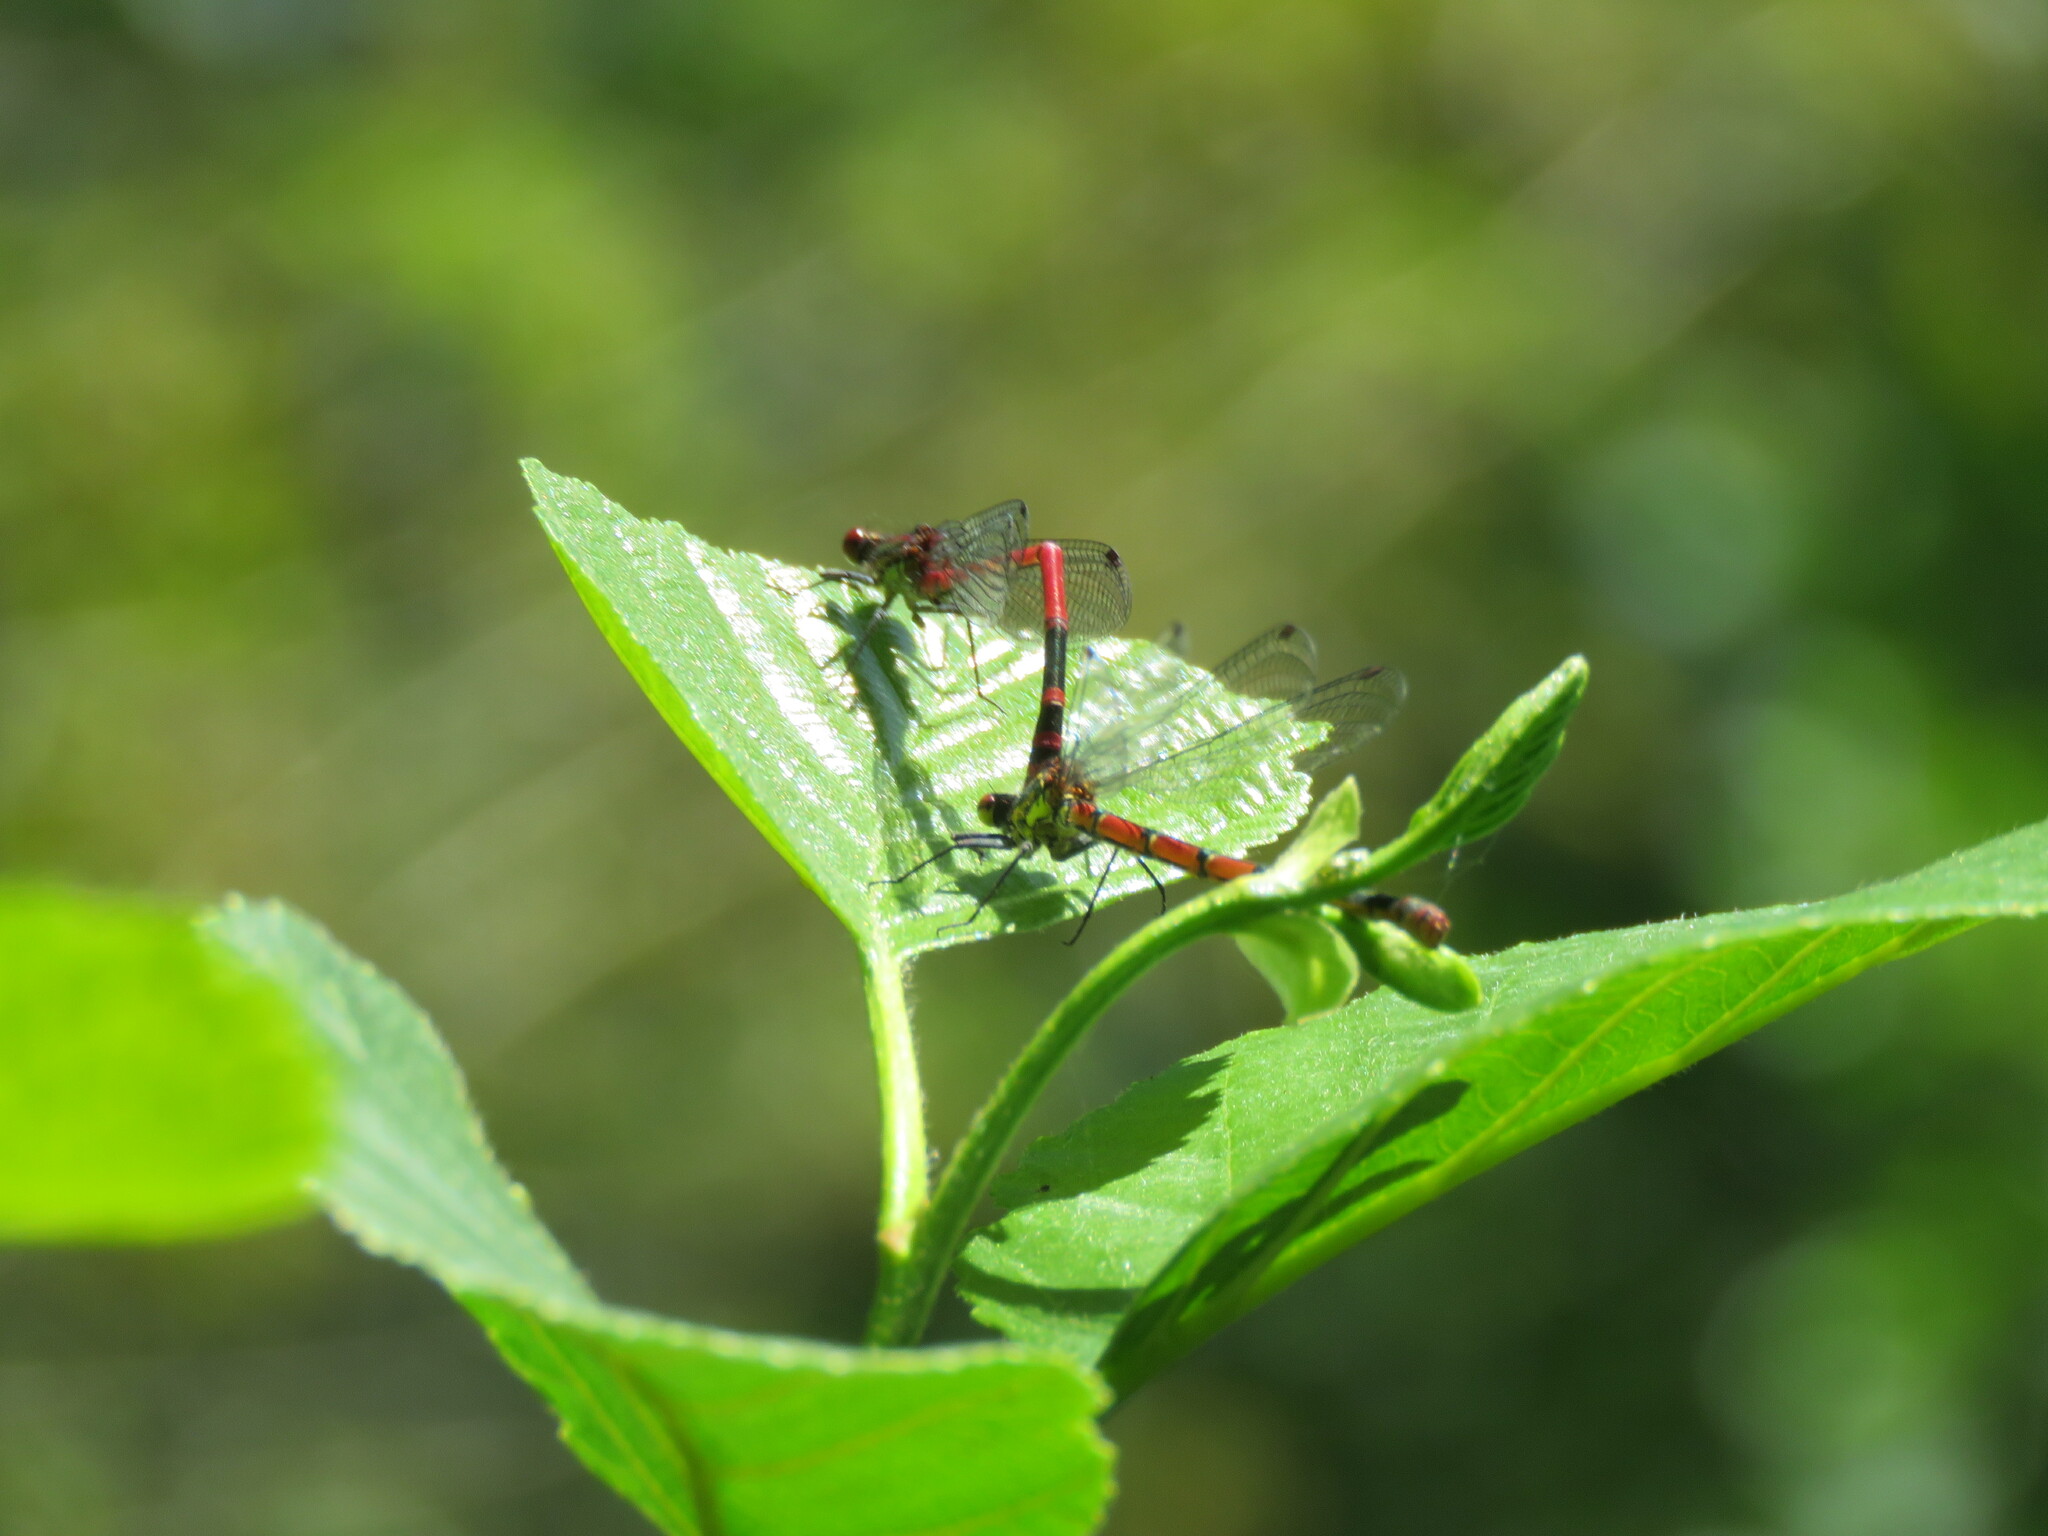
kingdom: Animalia
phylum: Arthropoda
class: Insecta
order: Odonata
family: Coenagrionidae
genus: Pyrrhosoma
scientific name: Pyrrhosoma nymphula
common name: Large red damsel
